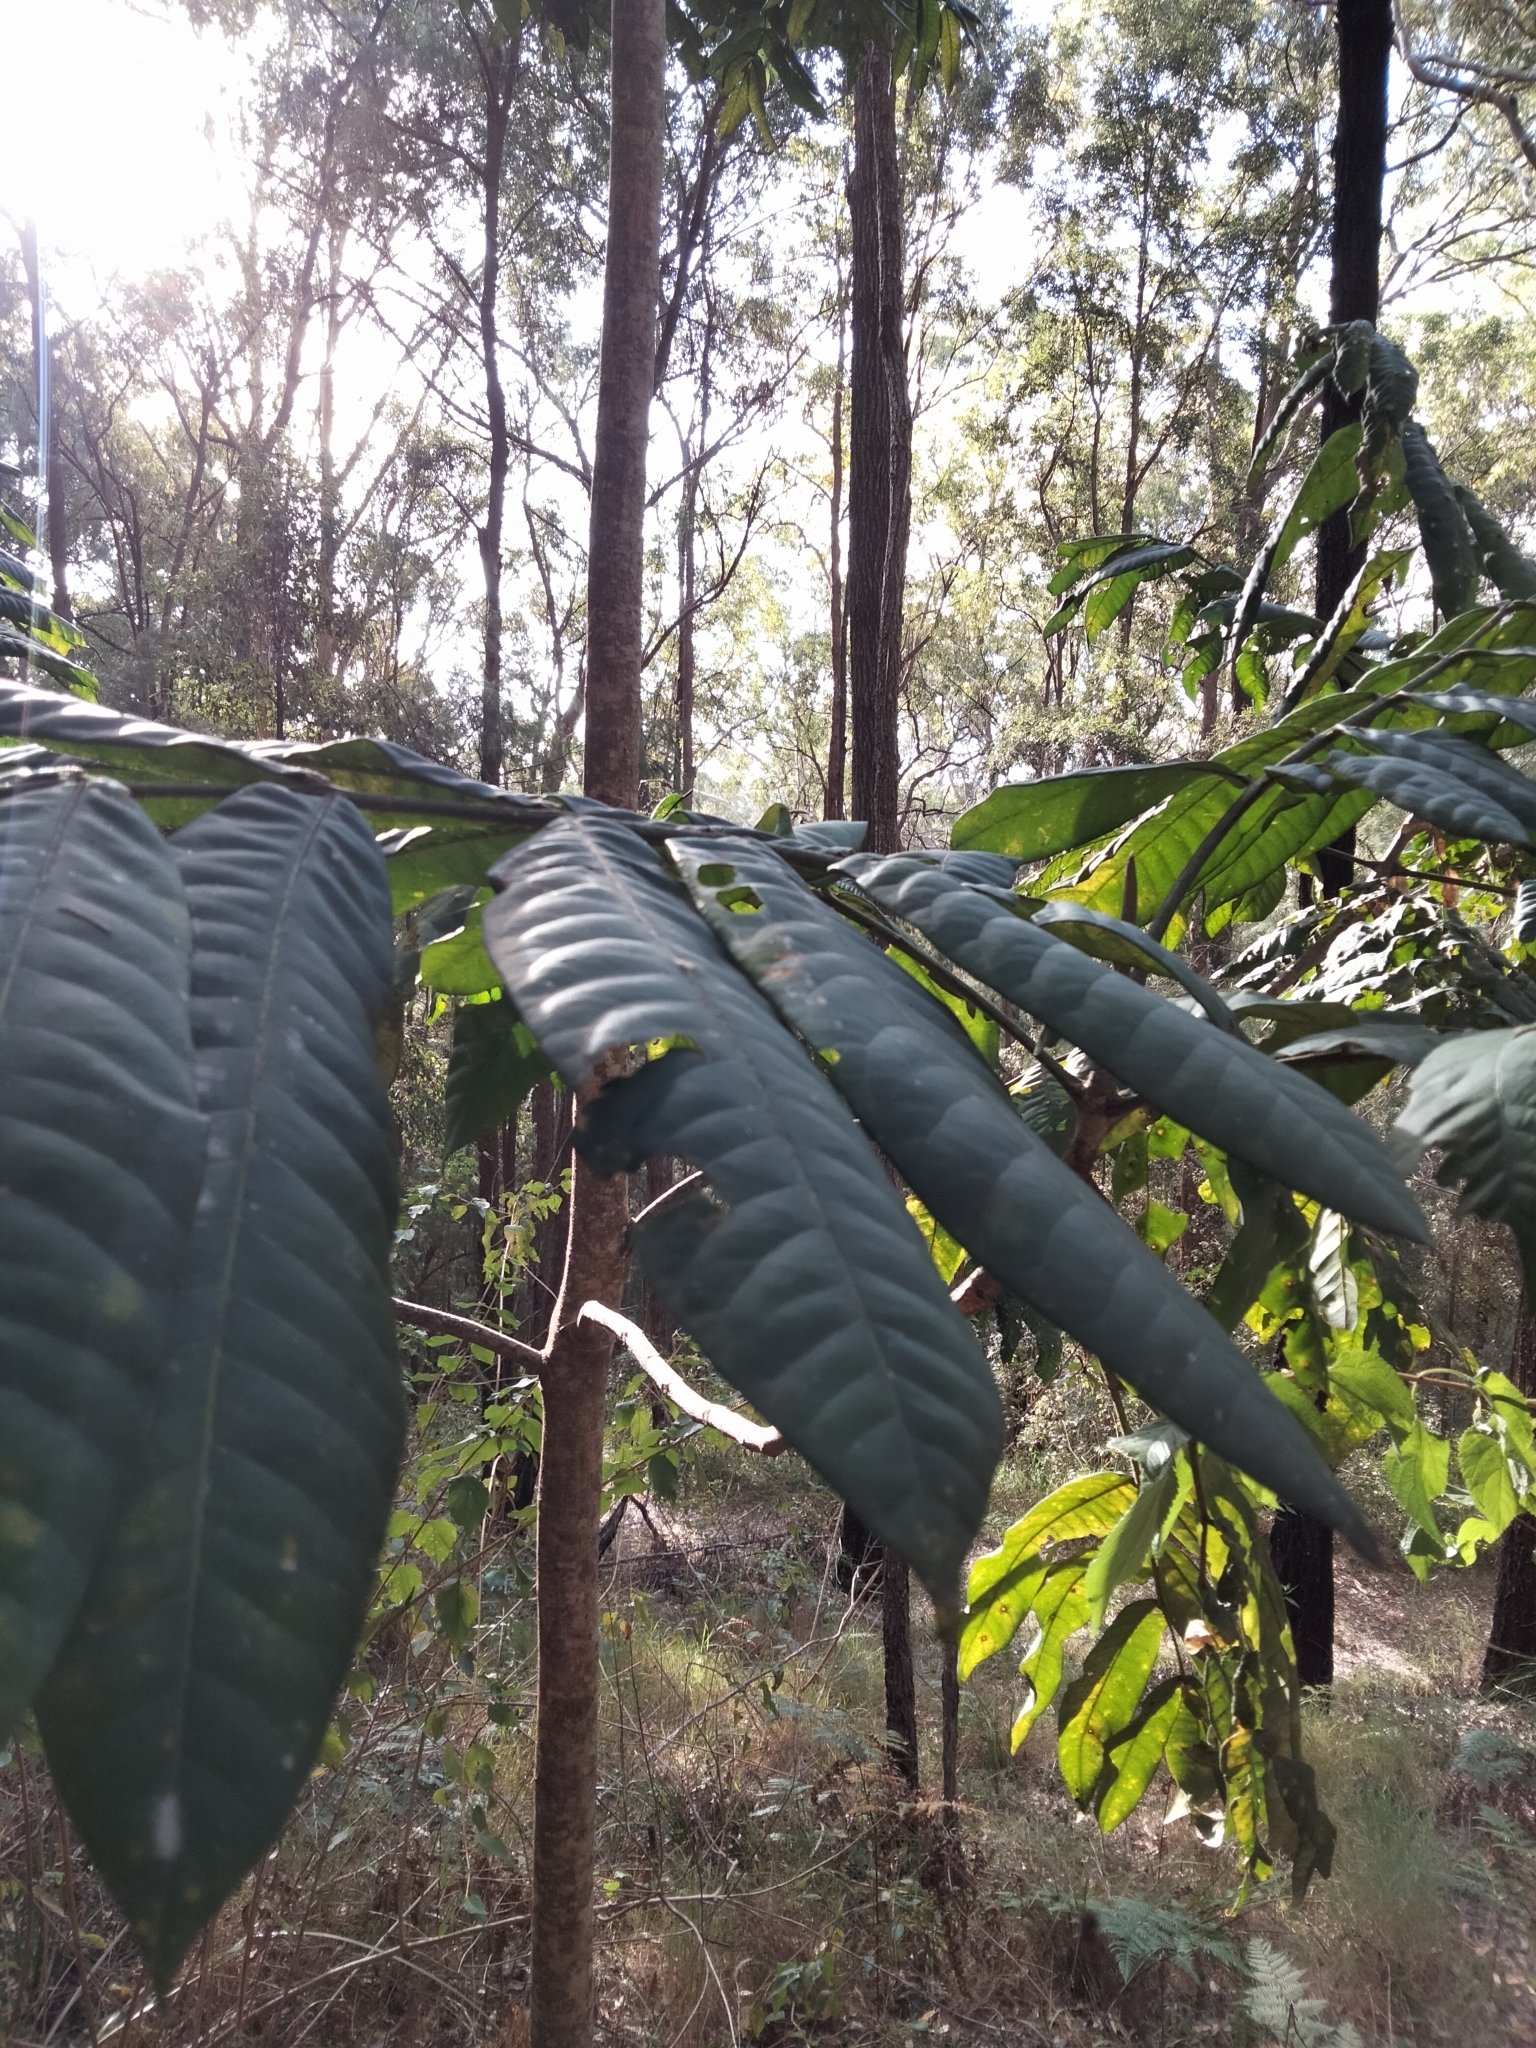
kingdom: Plantae
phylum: Tracheophyta
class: Magnoliopsida
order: Sapindales
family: Rutaceae
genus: Flindersia
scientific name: Flindersia schottiana
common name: Silver ash
